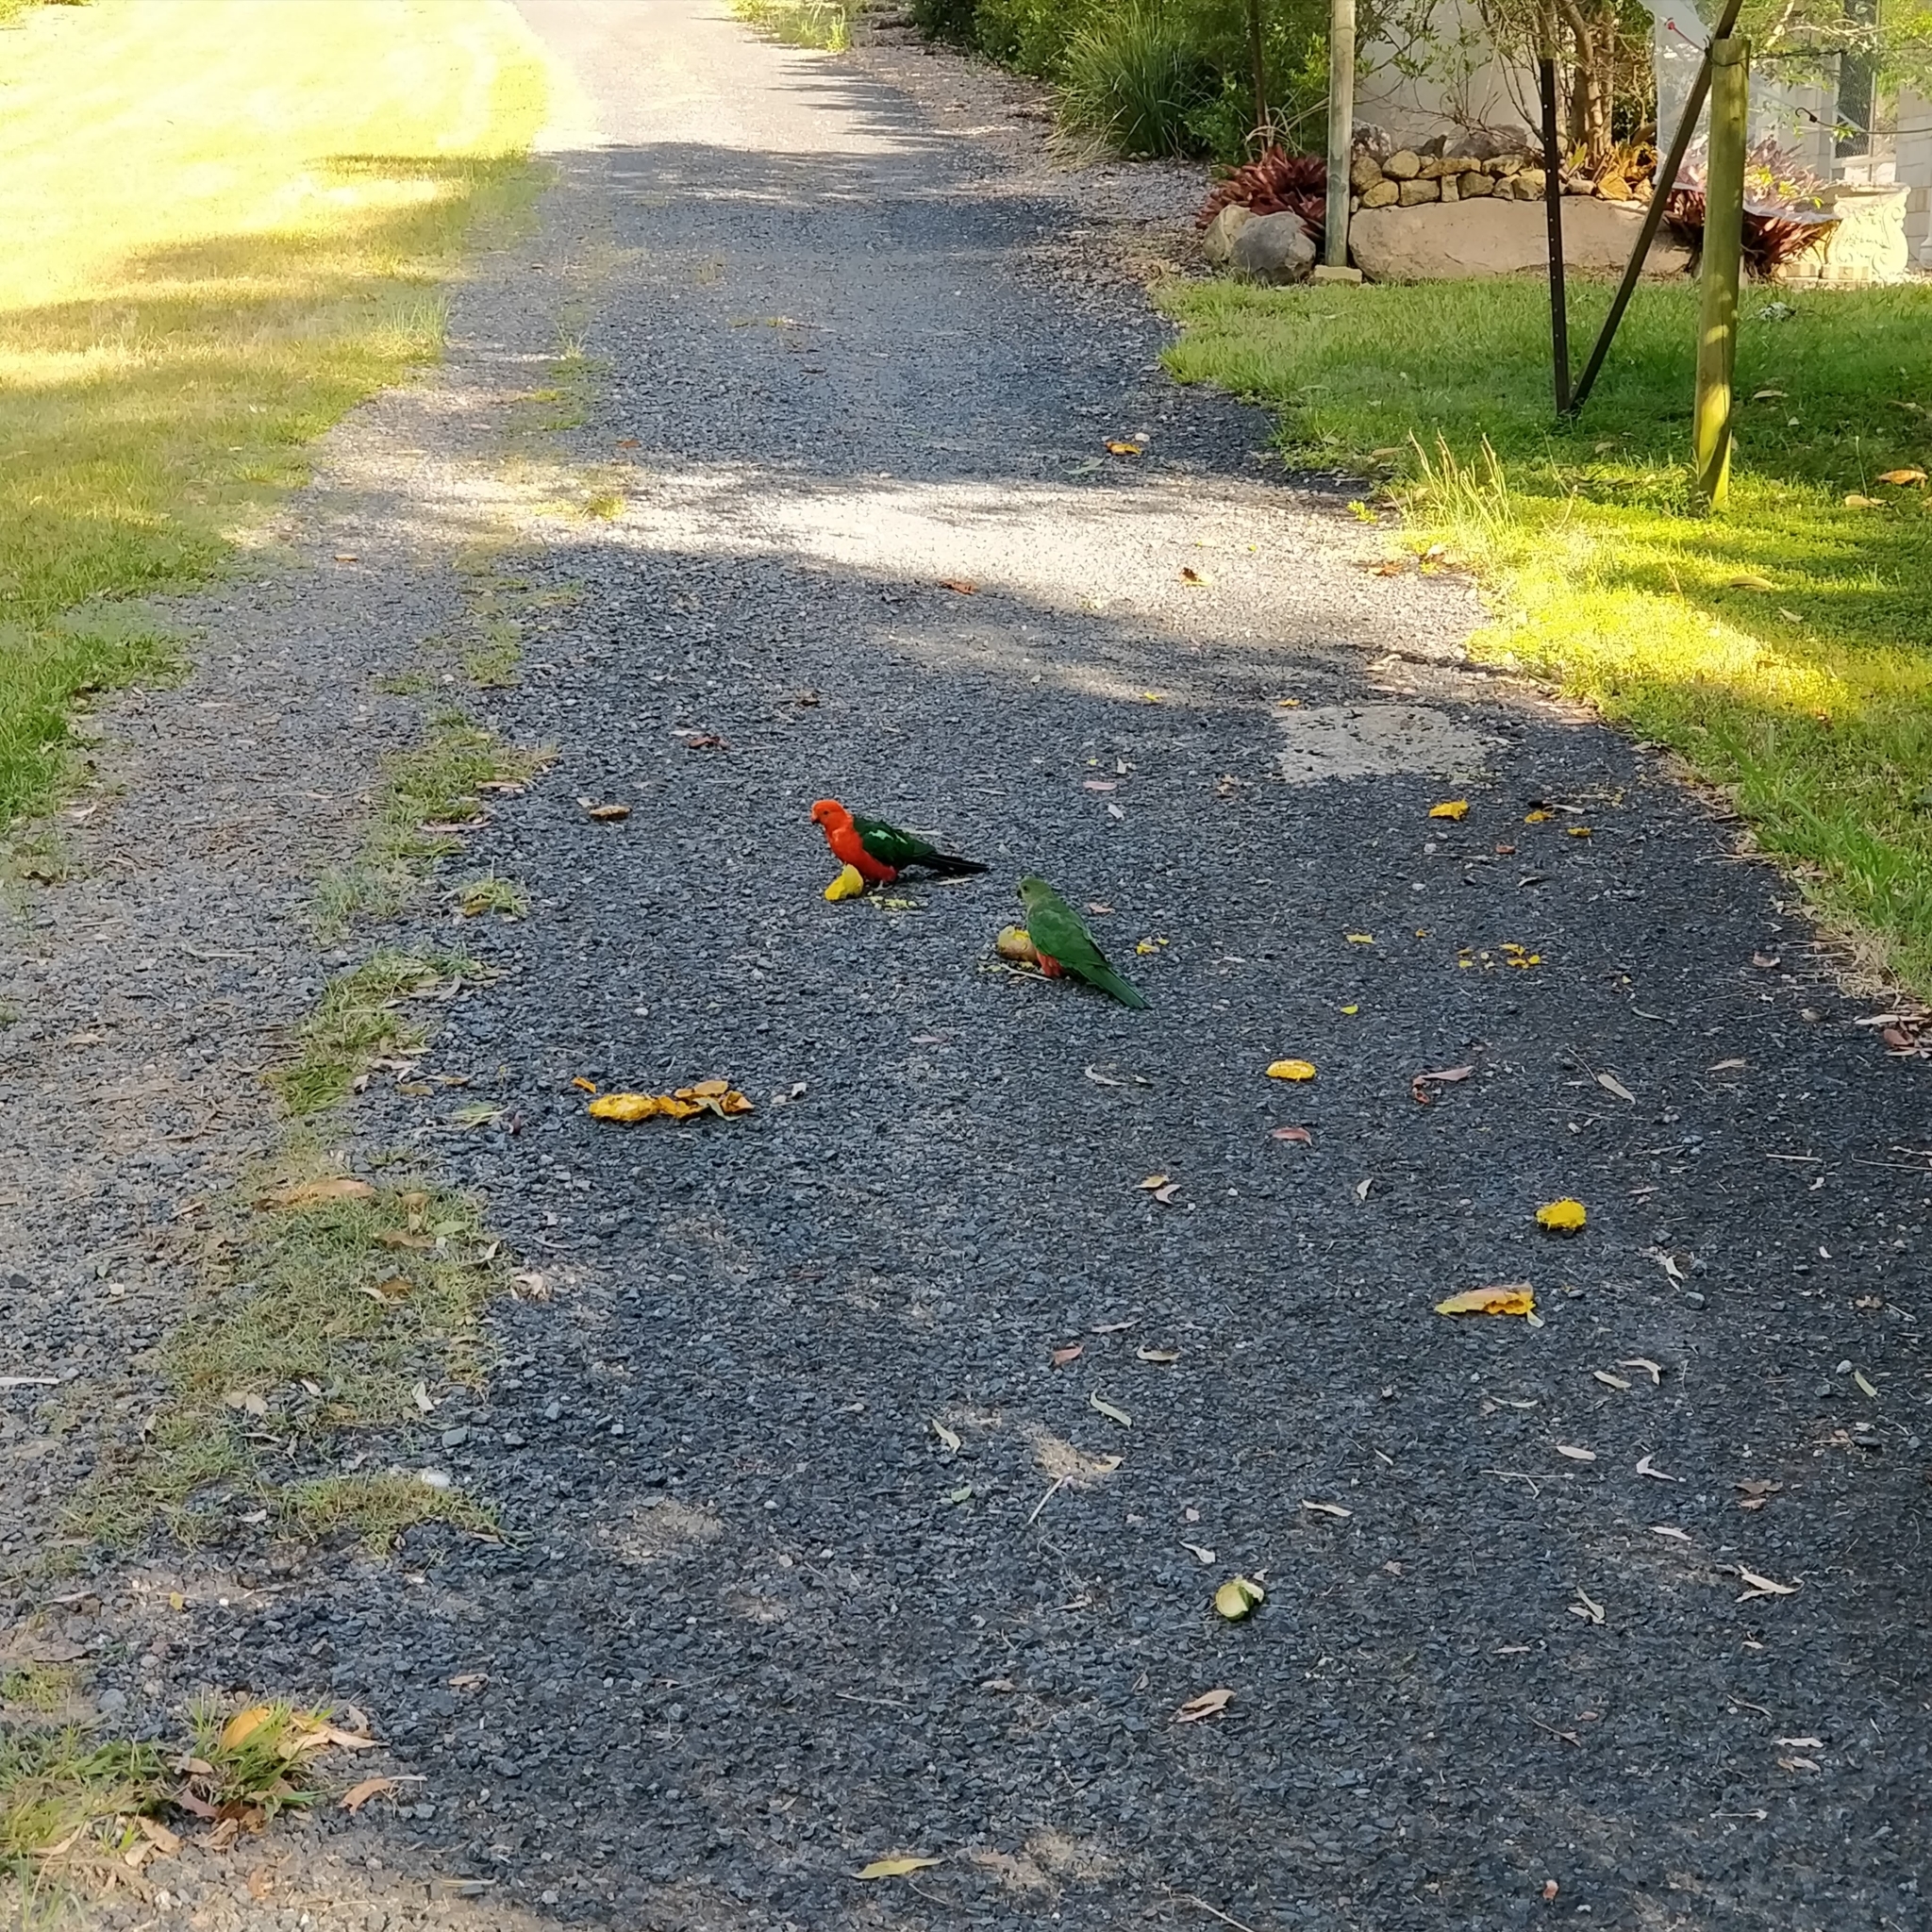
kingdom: Animalia
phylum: Chordata
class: Aves
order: Psittaciformes
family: Psittacidae
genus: Alisterus
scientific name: Alisterus scapularis
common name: Australian king parrot
